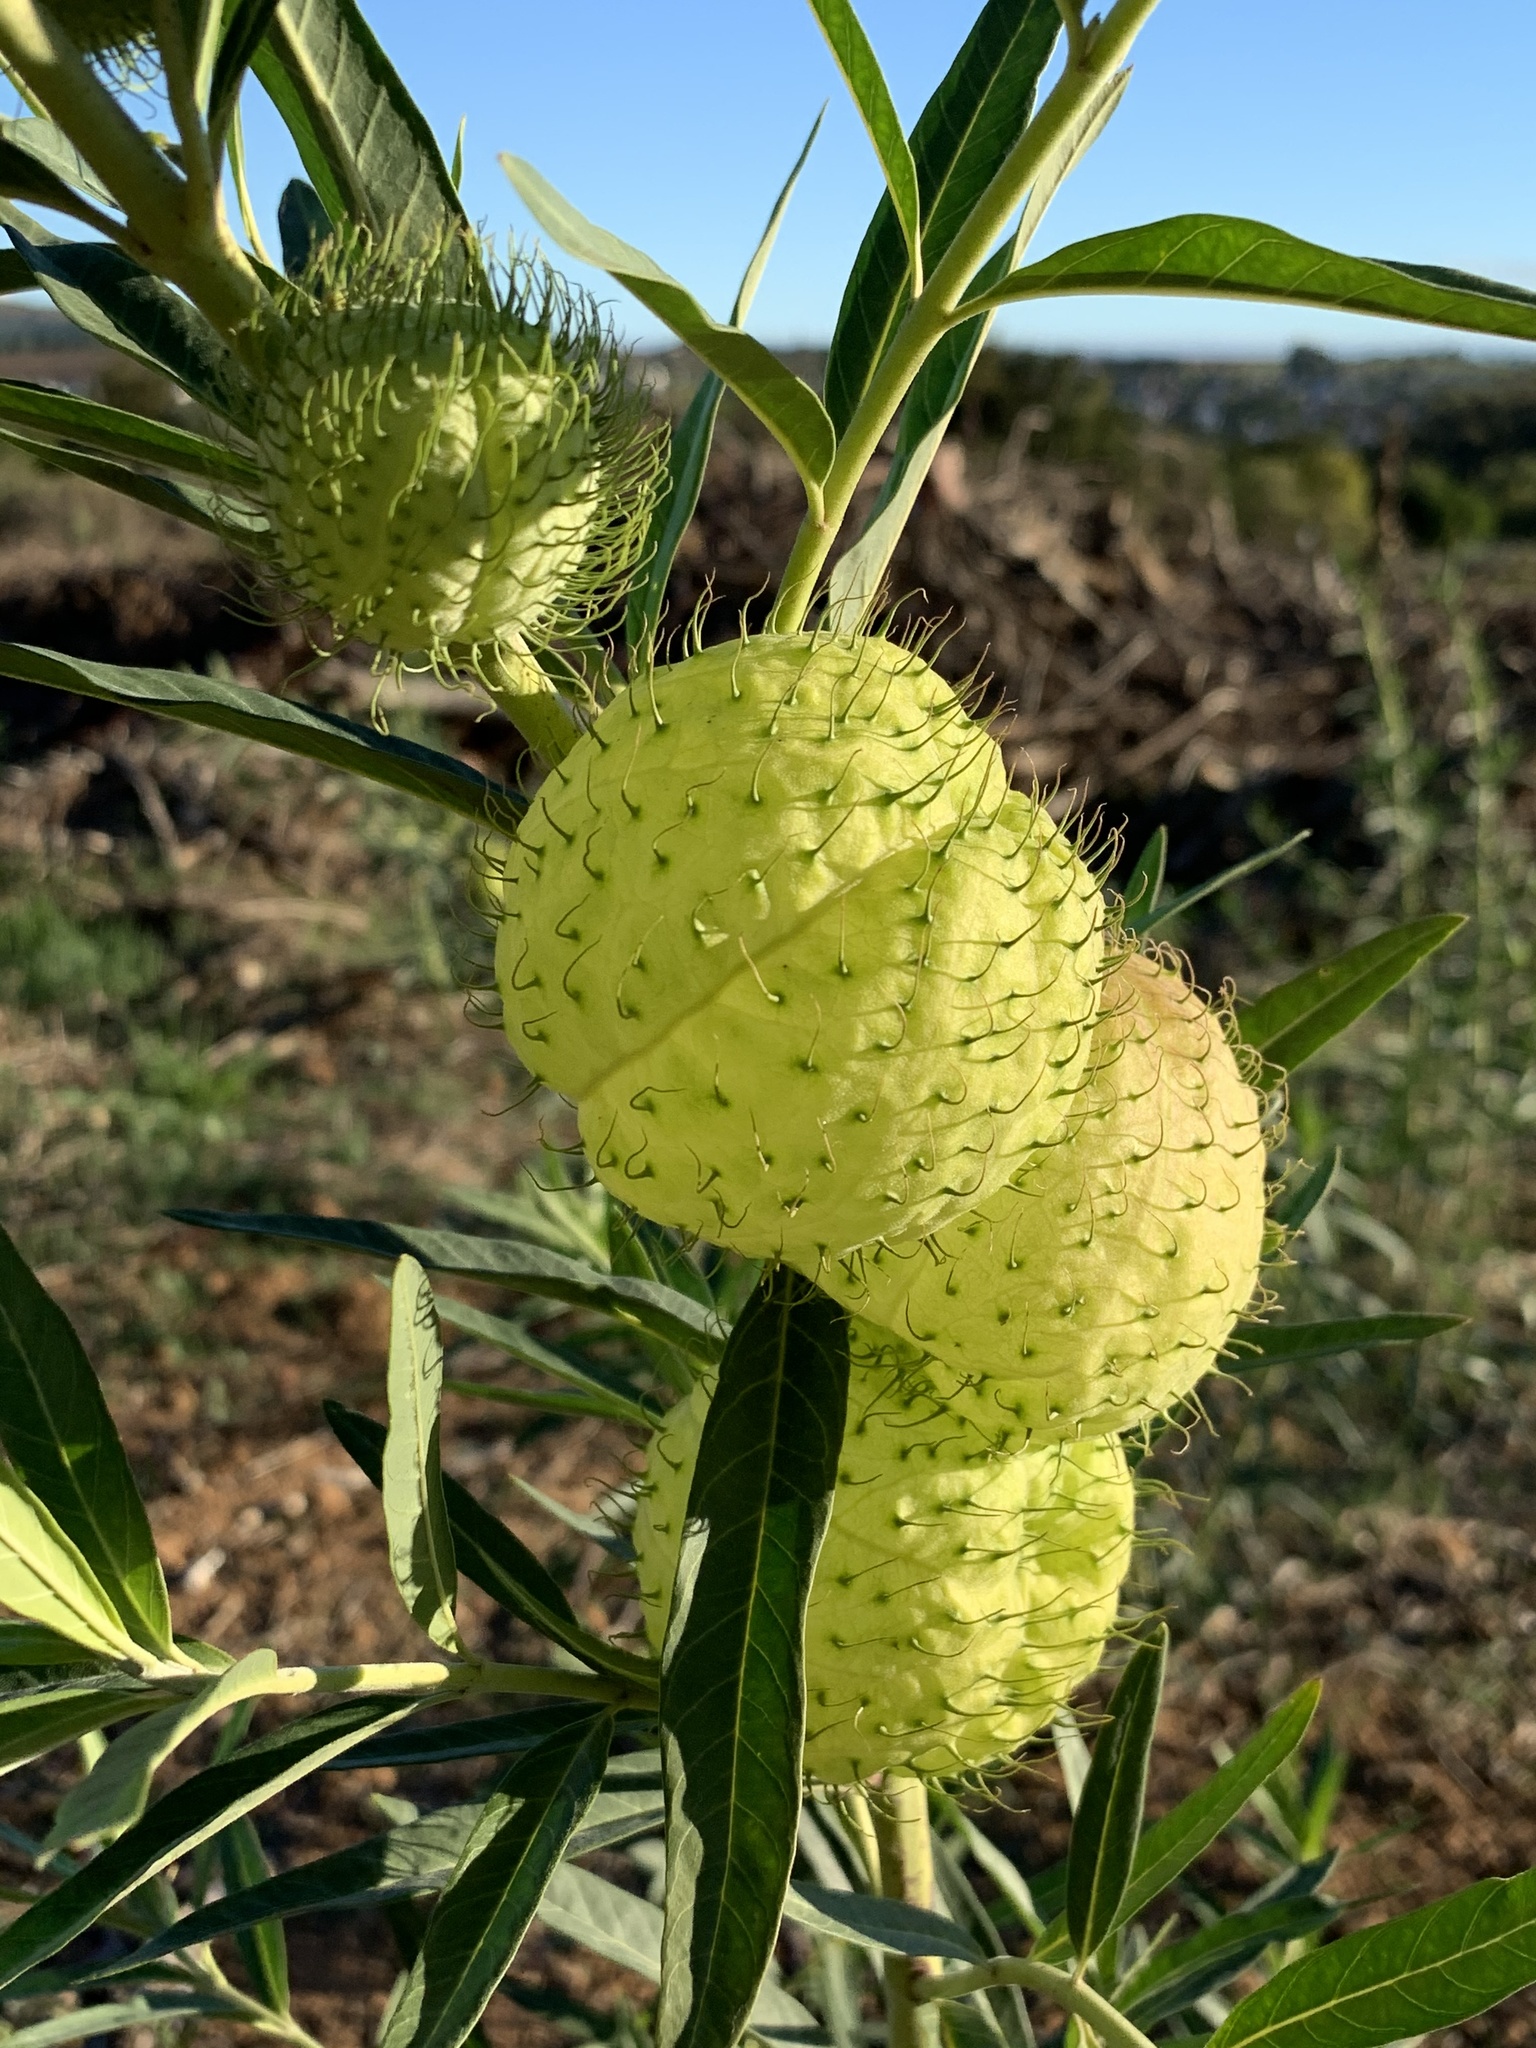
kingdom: Plantae
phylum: Tracheophyta
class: Magnoliopsida
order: Gentianales
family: Apocynaceae
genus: Gomphocarpus
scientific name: Gomphocarpus physocarpus
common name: Balloon cotton bush
